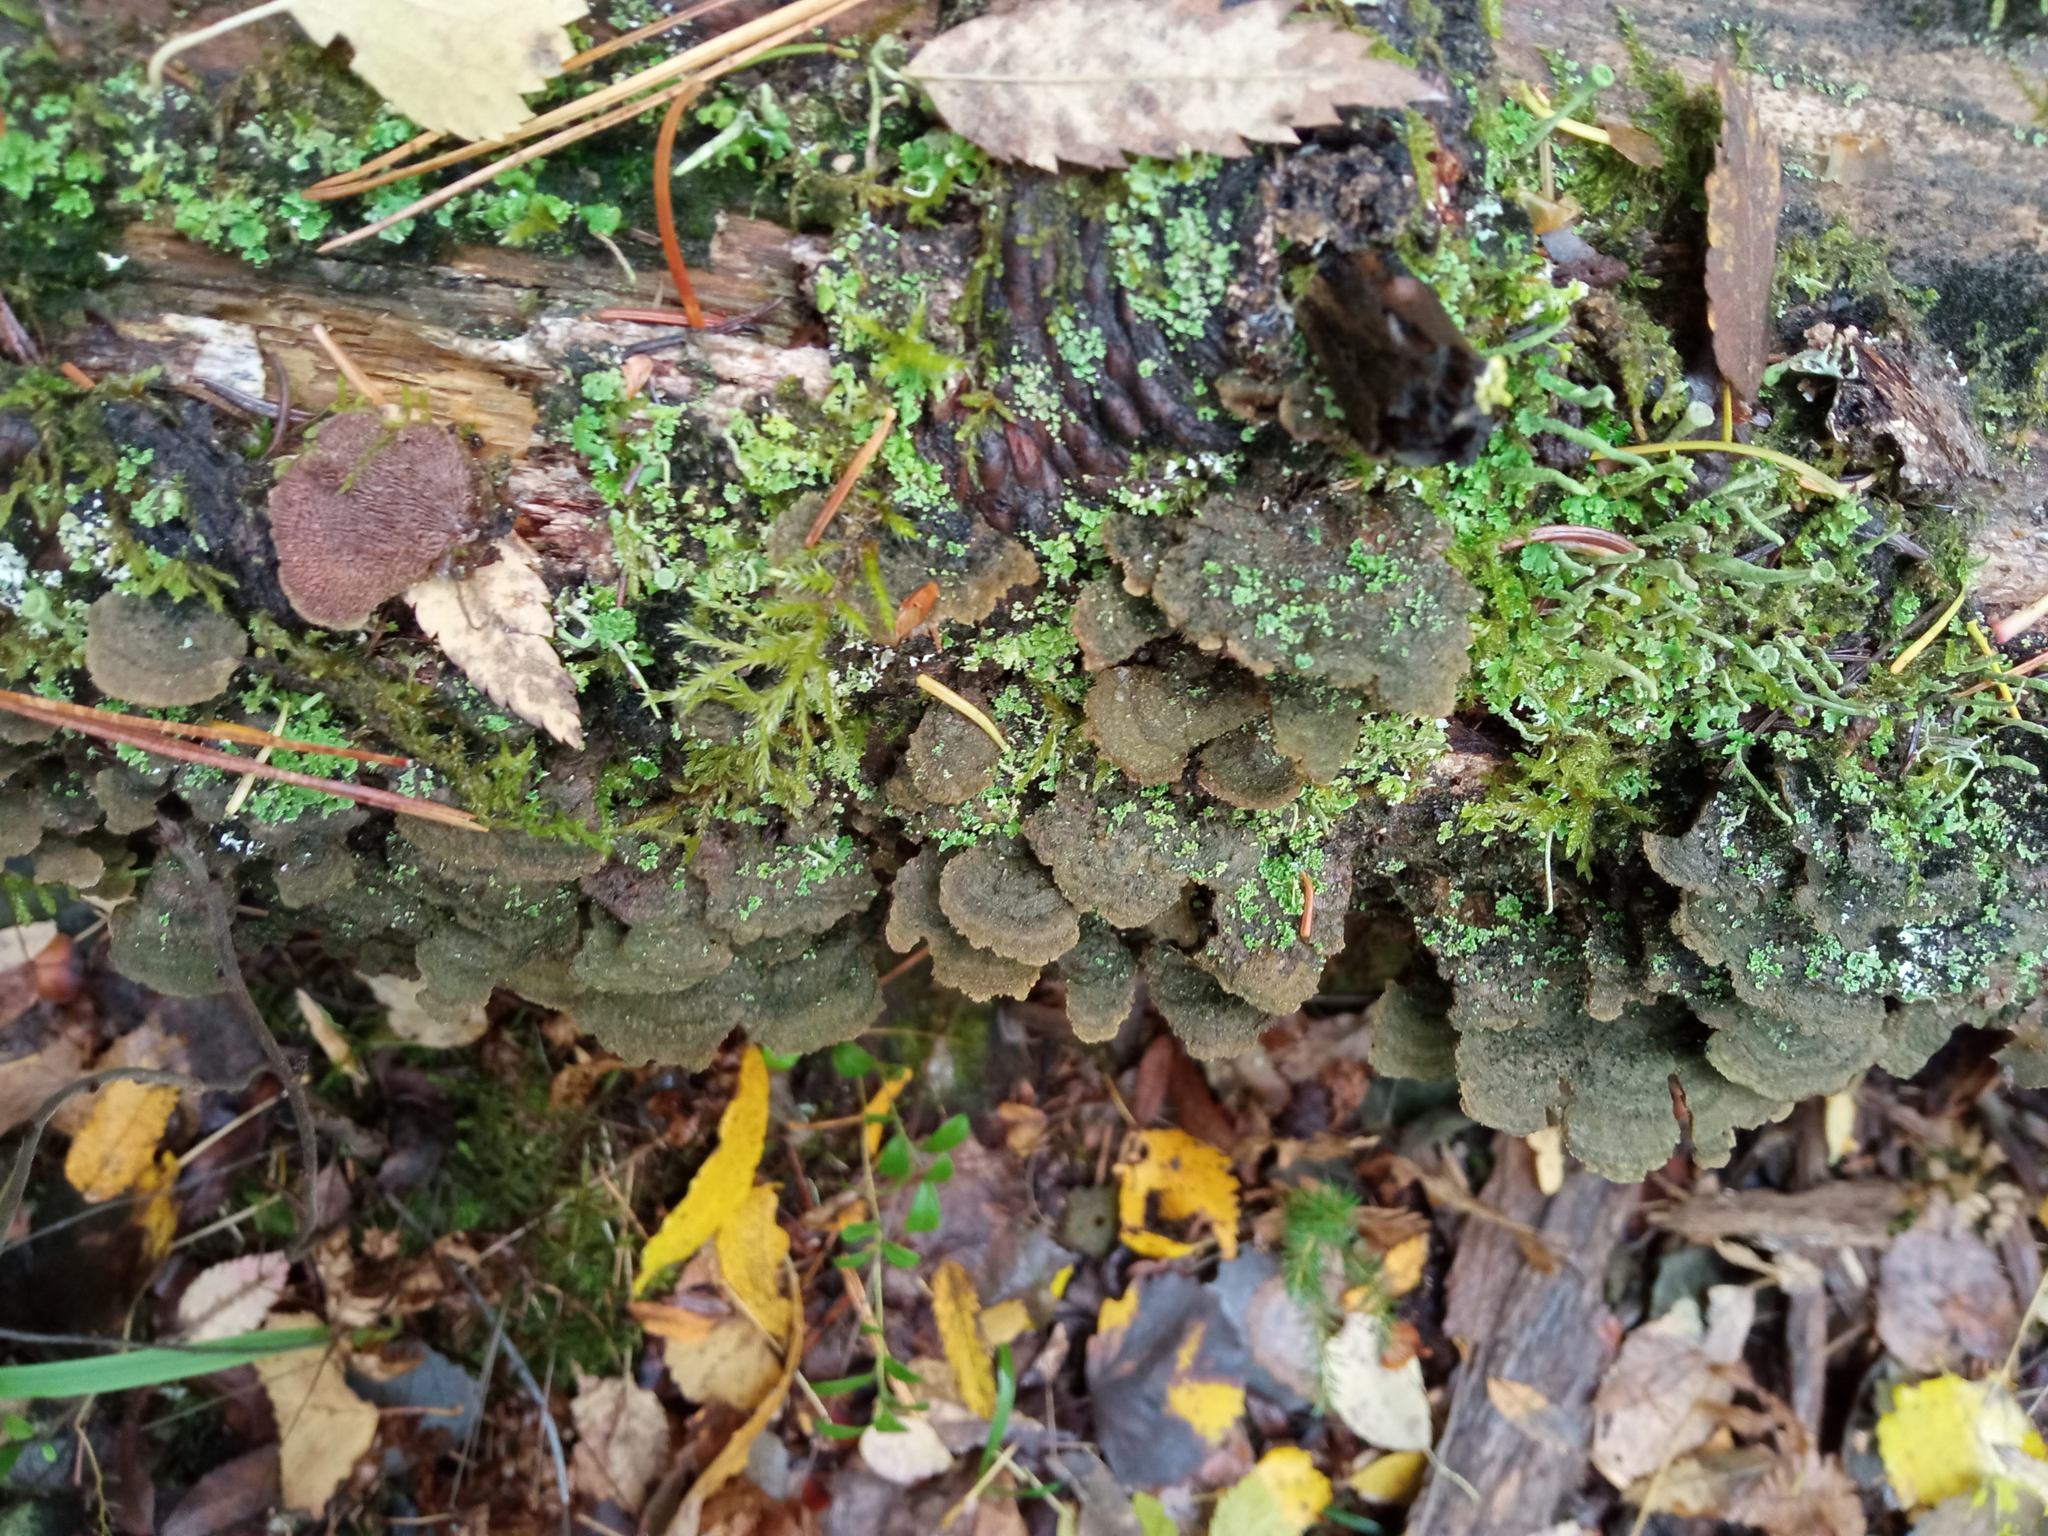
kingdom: Fungi
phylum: Basidiomycota
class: Agaricomycetes
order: Hymenochaetales
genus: Trichaptum
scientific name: Trichaptum fuscoviolaceum
